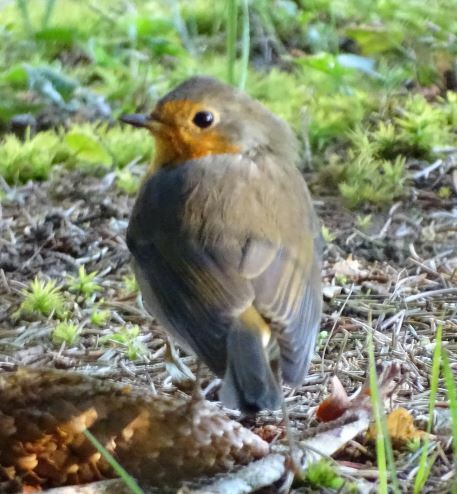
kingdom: Animalia
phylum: Chordata
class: Aves
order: Passeriformes
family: Muscicapidae
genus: Erithacus
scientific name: Erithacus rubecula
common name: European robin
